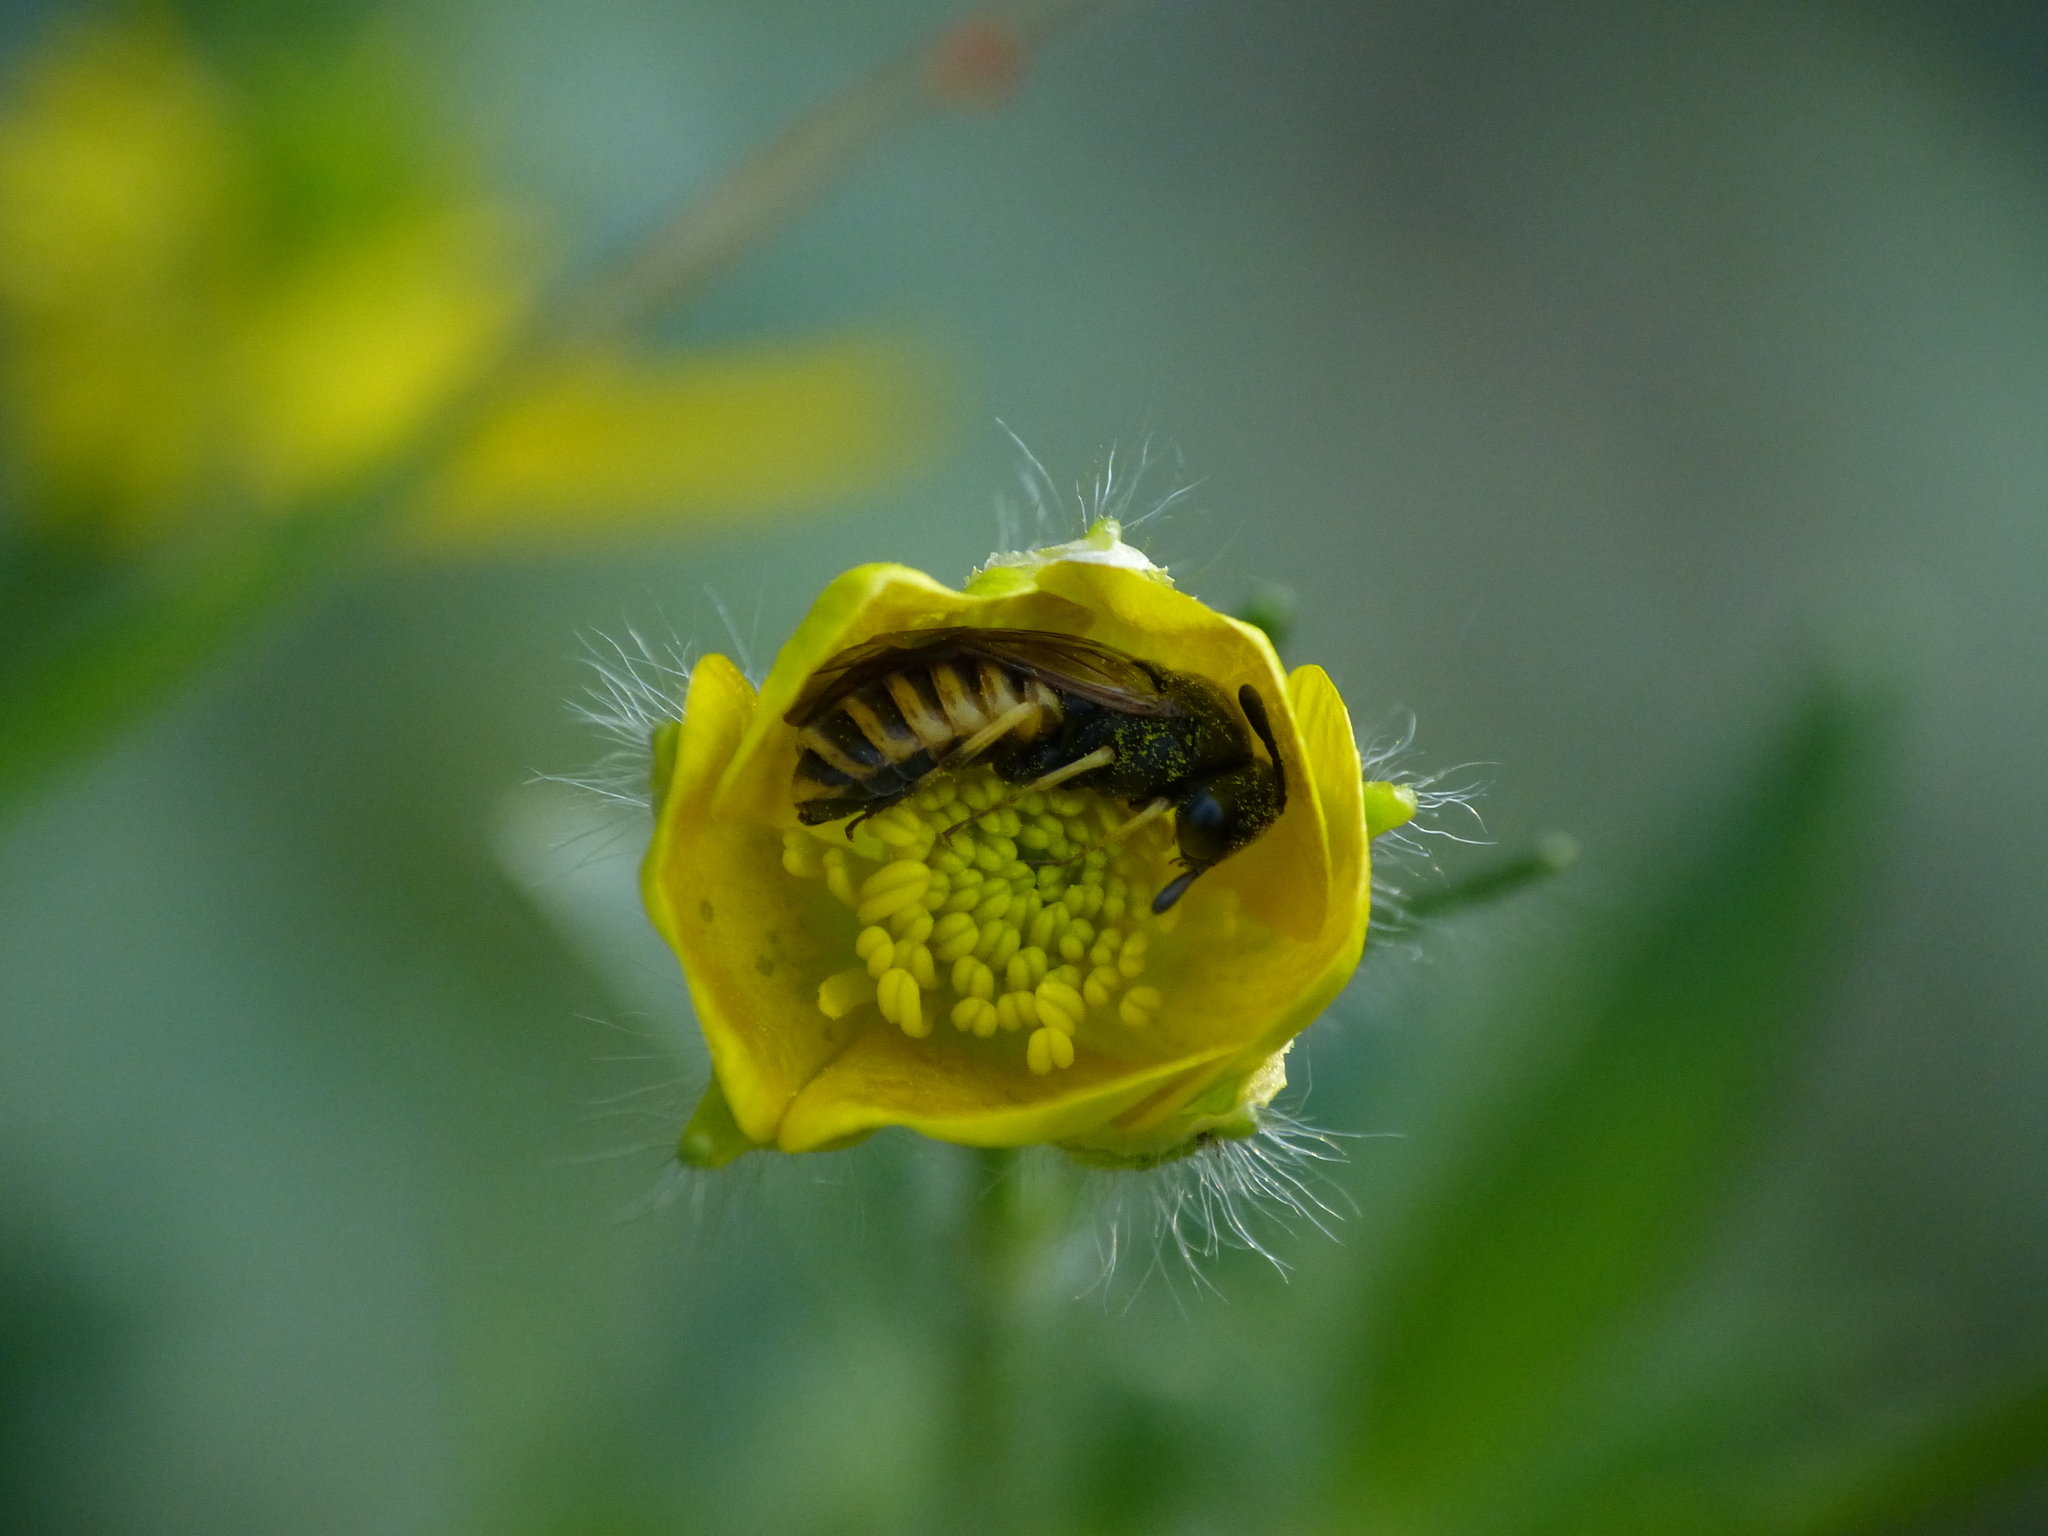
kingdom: Animalia
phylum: Arthropoda
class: Insecta
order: Hymenoptera
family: Cimbicidae
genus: Corynis
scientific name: Corynis crassicornis
